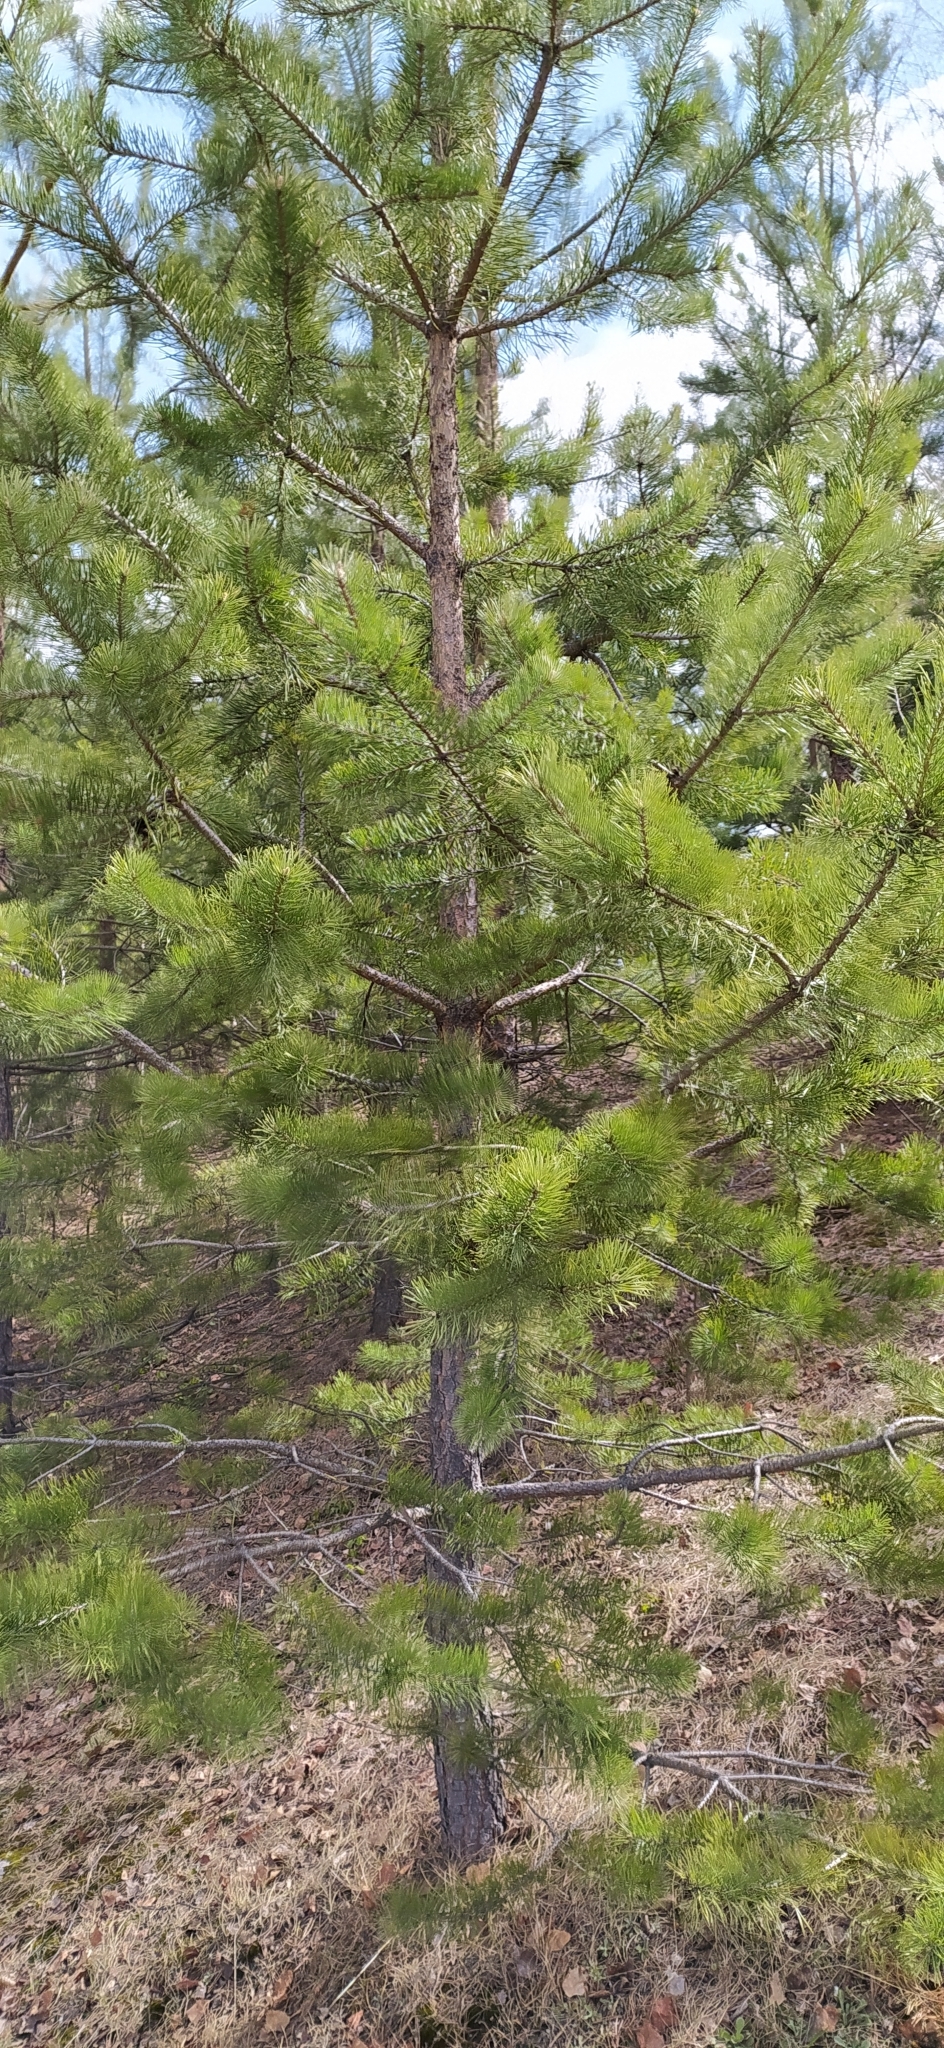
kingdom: Plantae
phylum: Tracheophyta
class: Pinopsida
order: Pinales
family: Pinaceae
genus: Pinus
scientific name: Pinus sylvestris
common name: Scots pine
